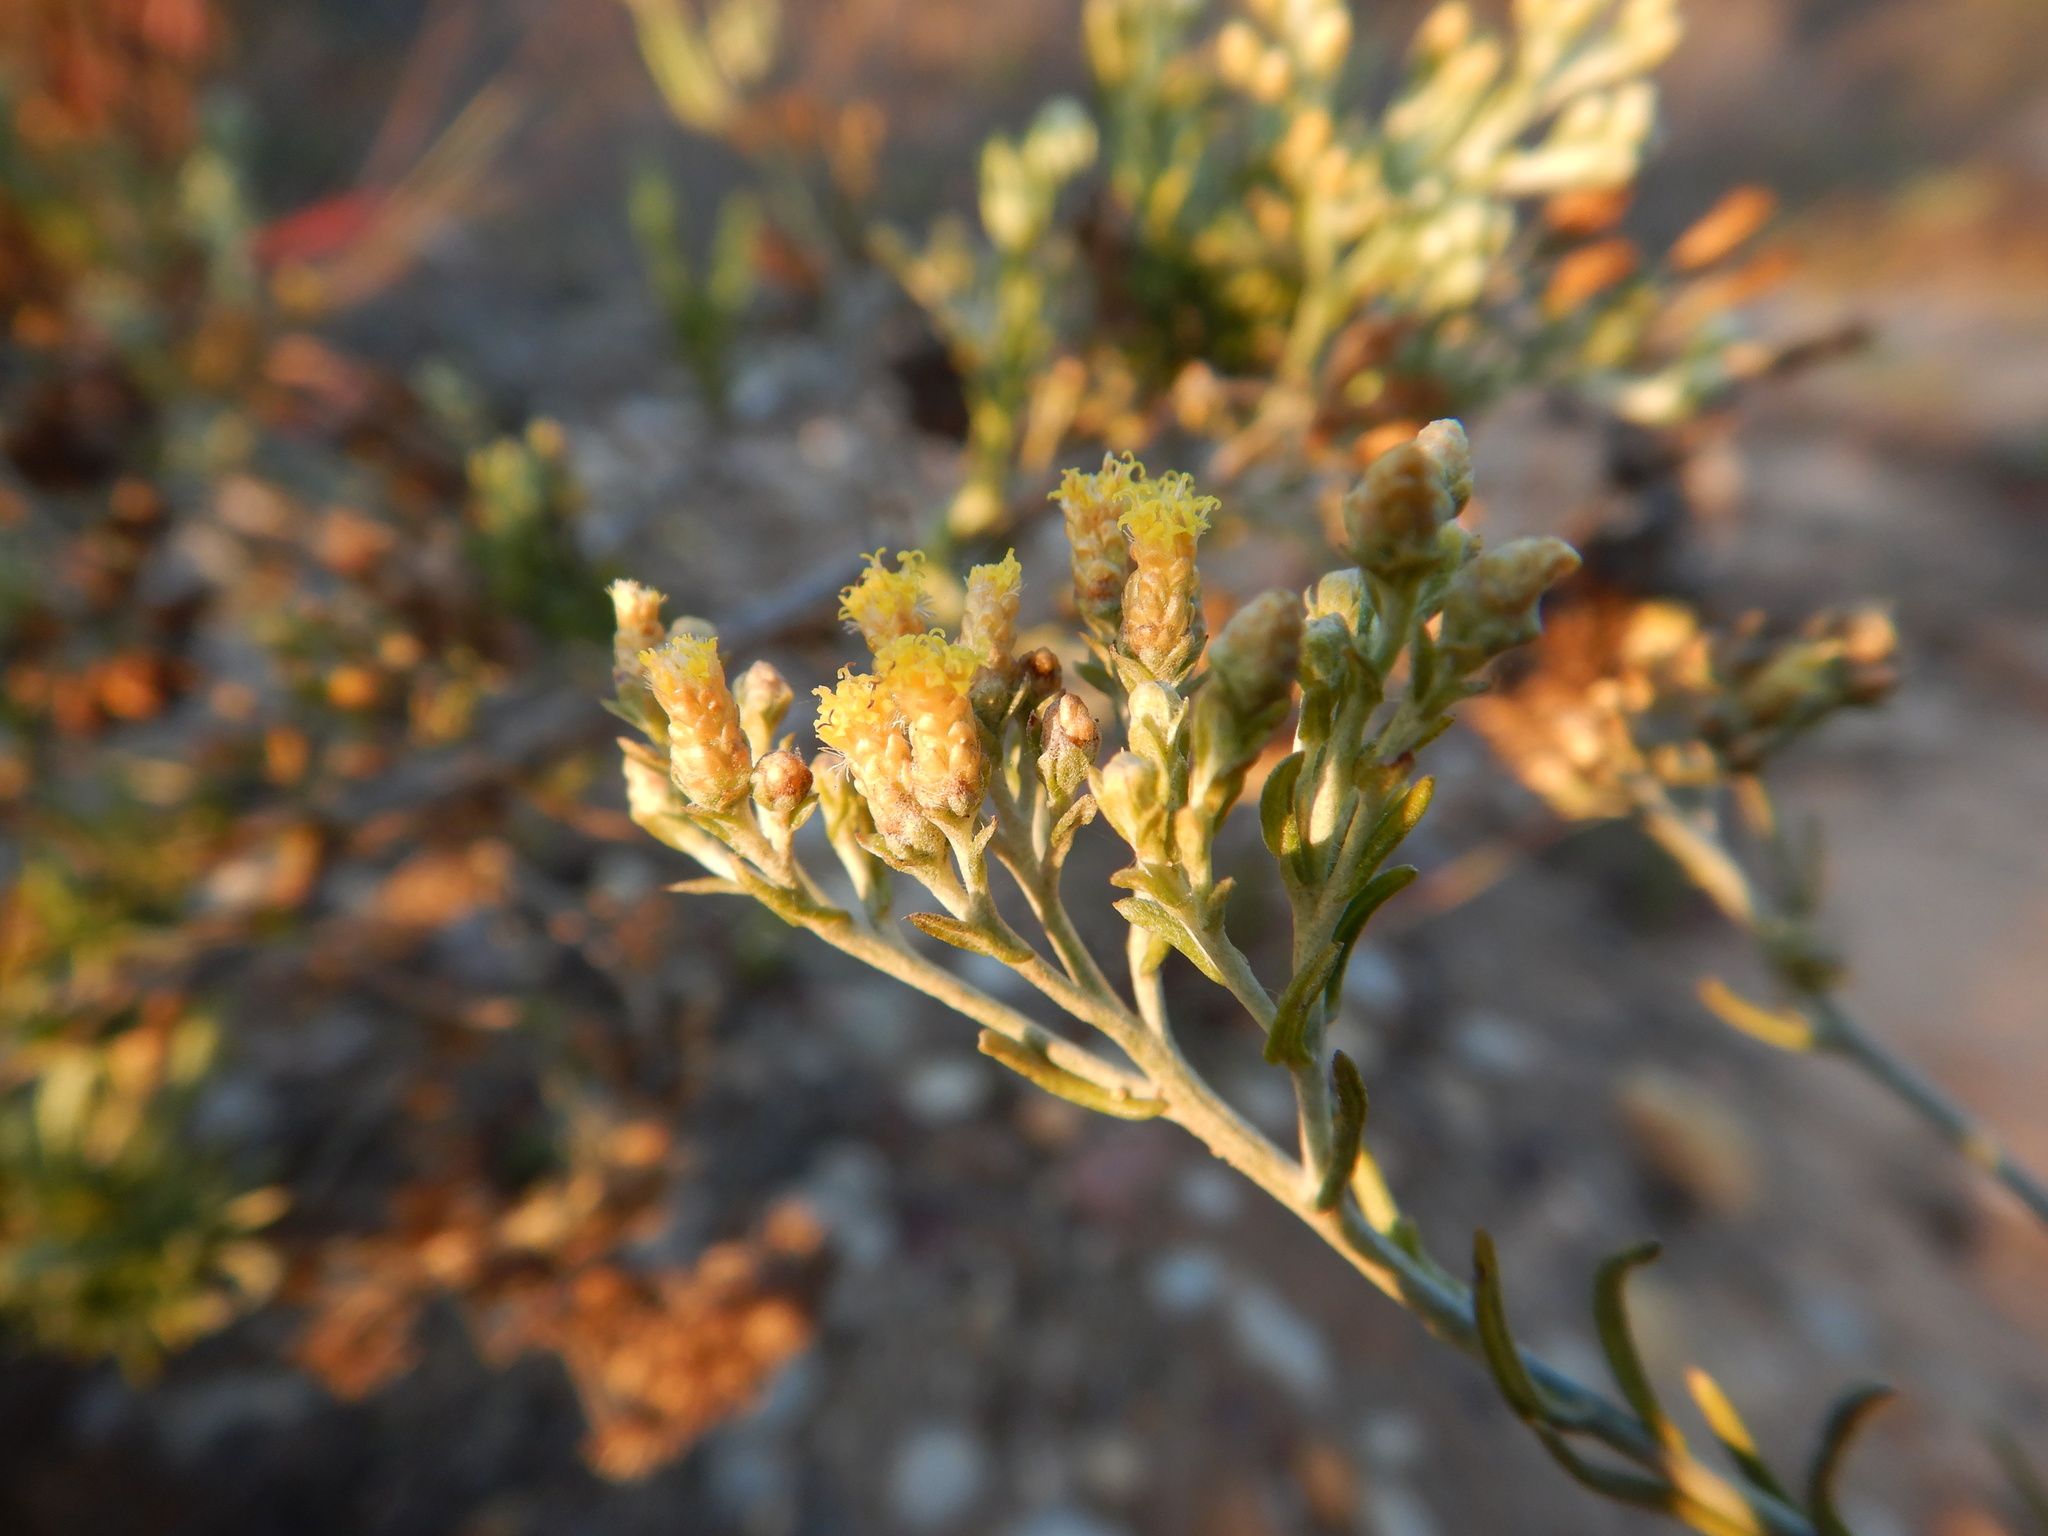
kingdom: Plantae
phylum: Tracheophyta
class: Magnoliopsida
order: Asterales
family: Asteraceae
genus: Helichrysum
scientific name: Helichrysum serotinum
